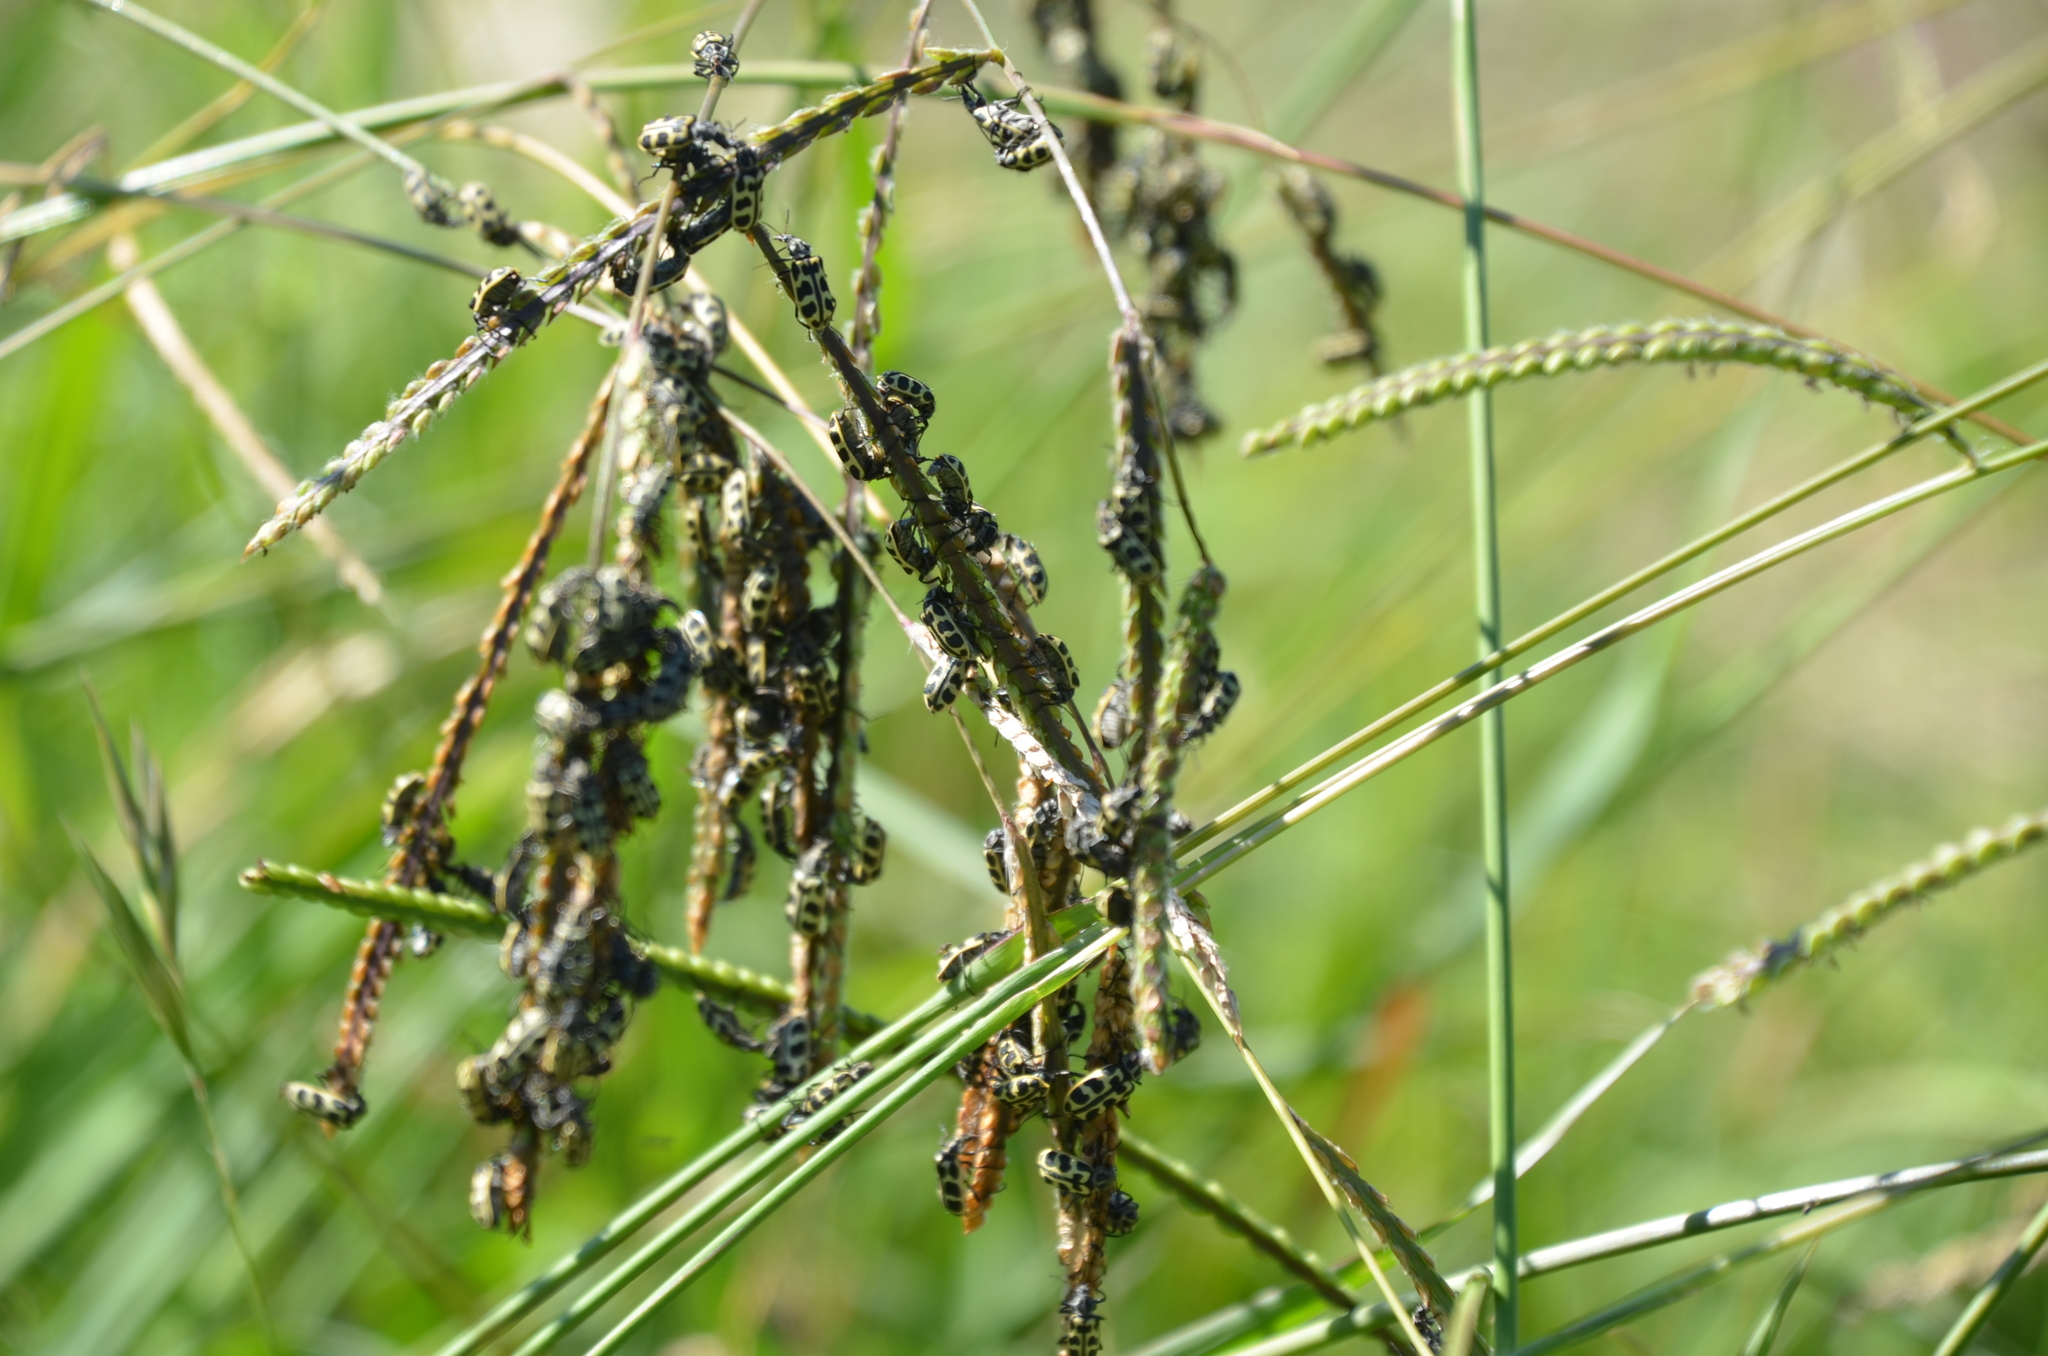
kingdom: Animalia
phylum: Arthropoda
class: Insecta
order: Coleoptera
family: Melyridae
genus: Astylus
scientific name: Astylus atromaculatus
